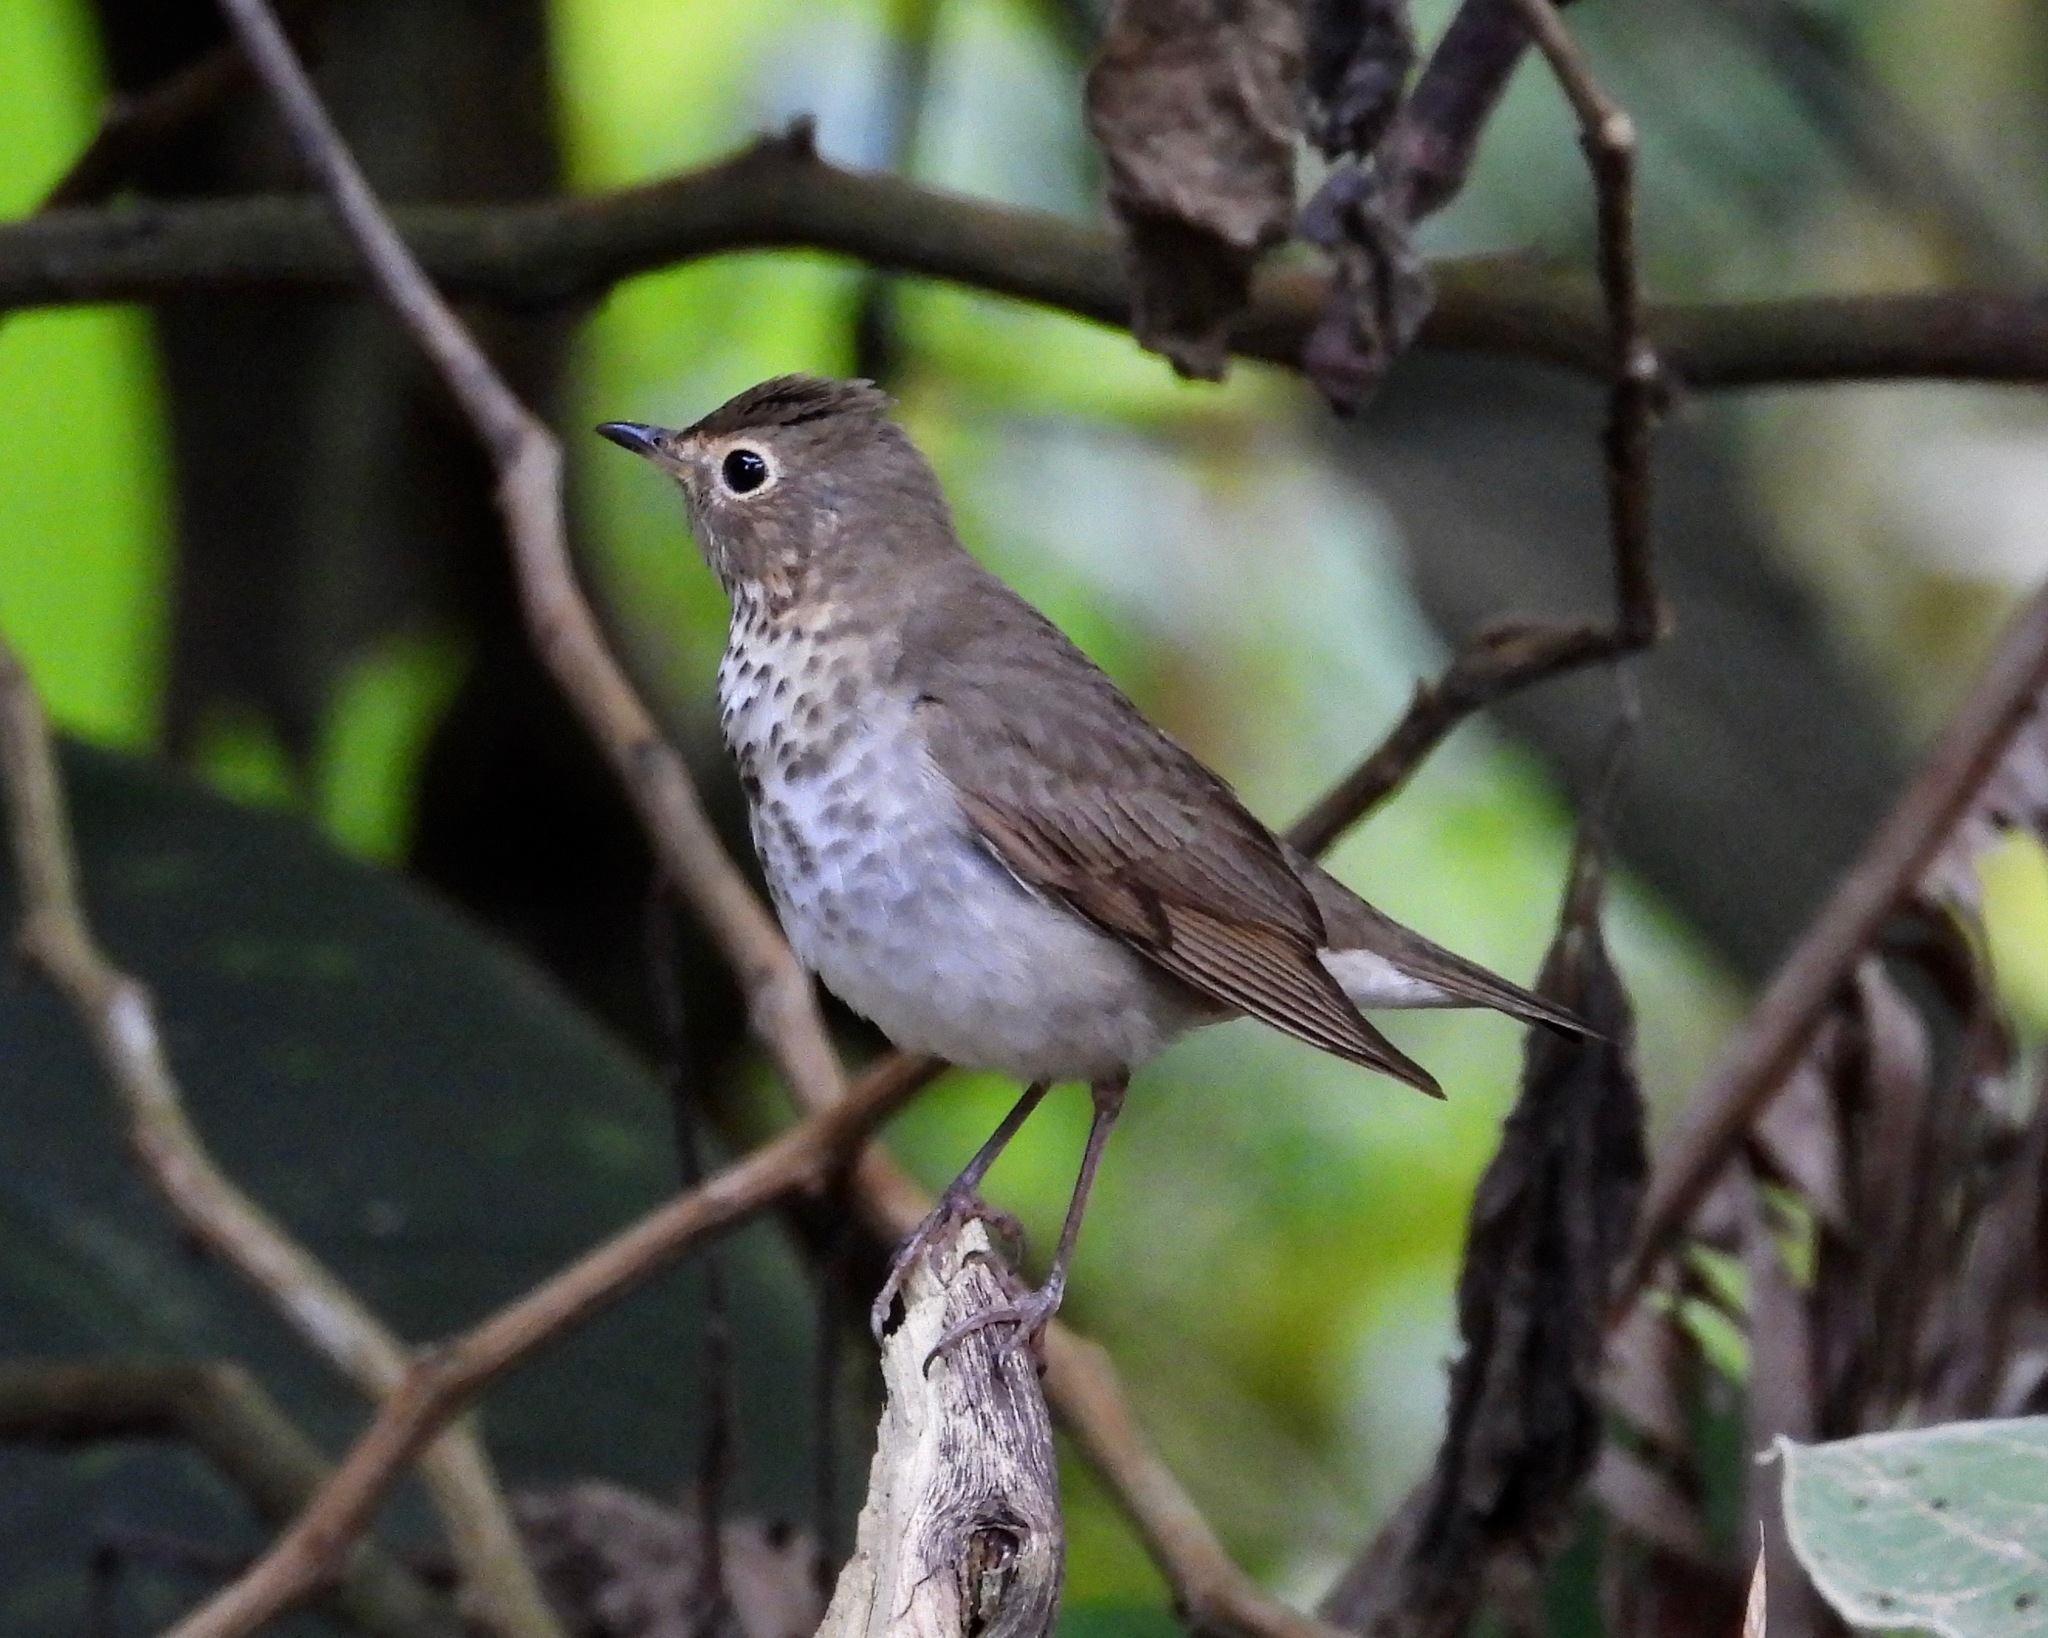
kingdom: Animalia
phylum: Chordata
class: Aves
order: Passeriformes
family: Turdidae
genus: Catharus
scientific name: Catharus ustulatus
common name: Swainson's thrush
